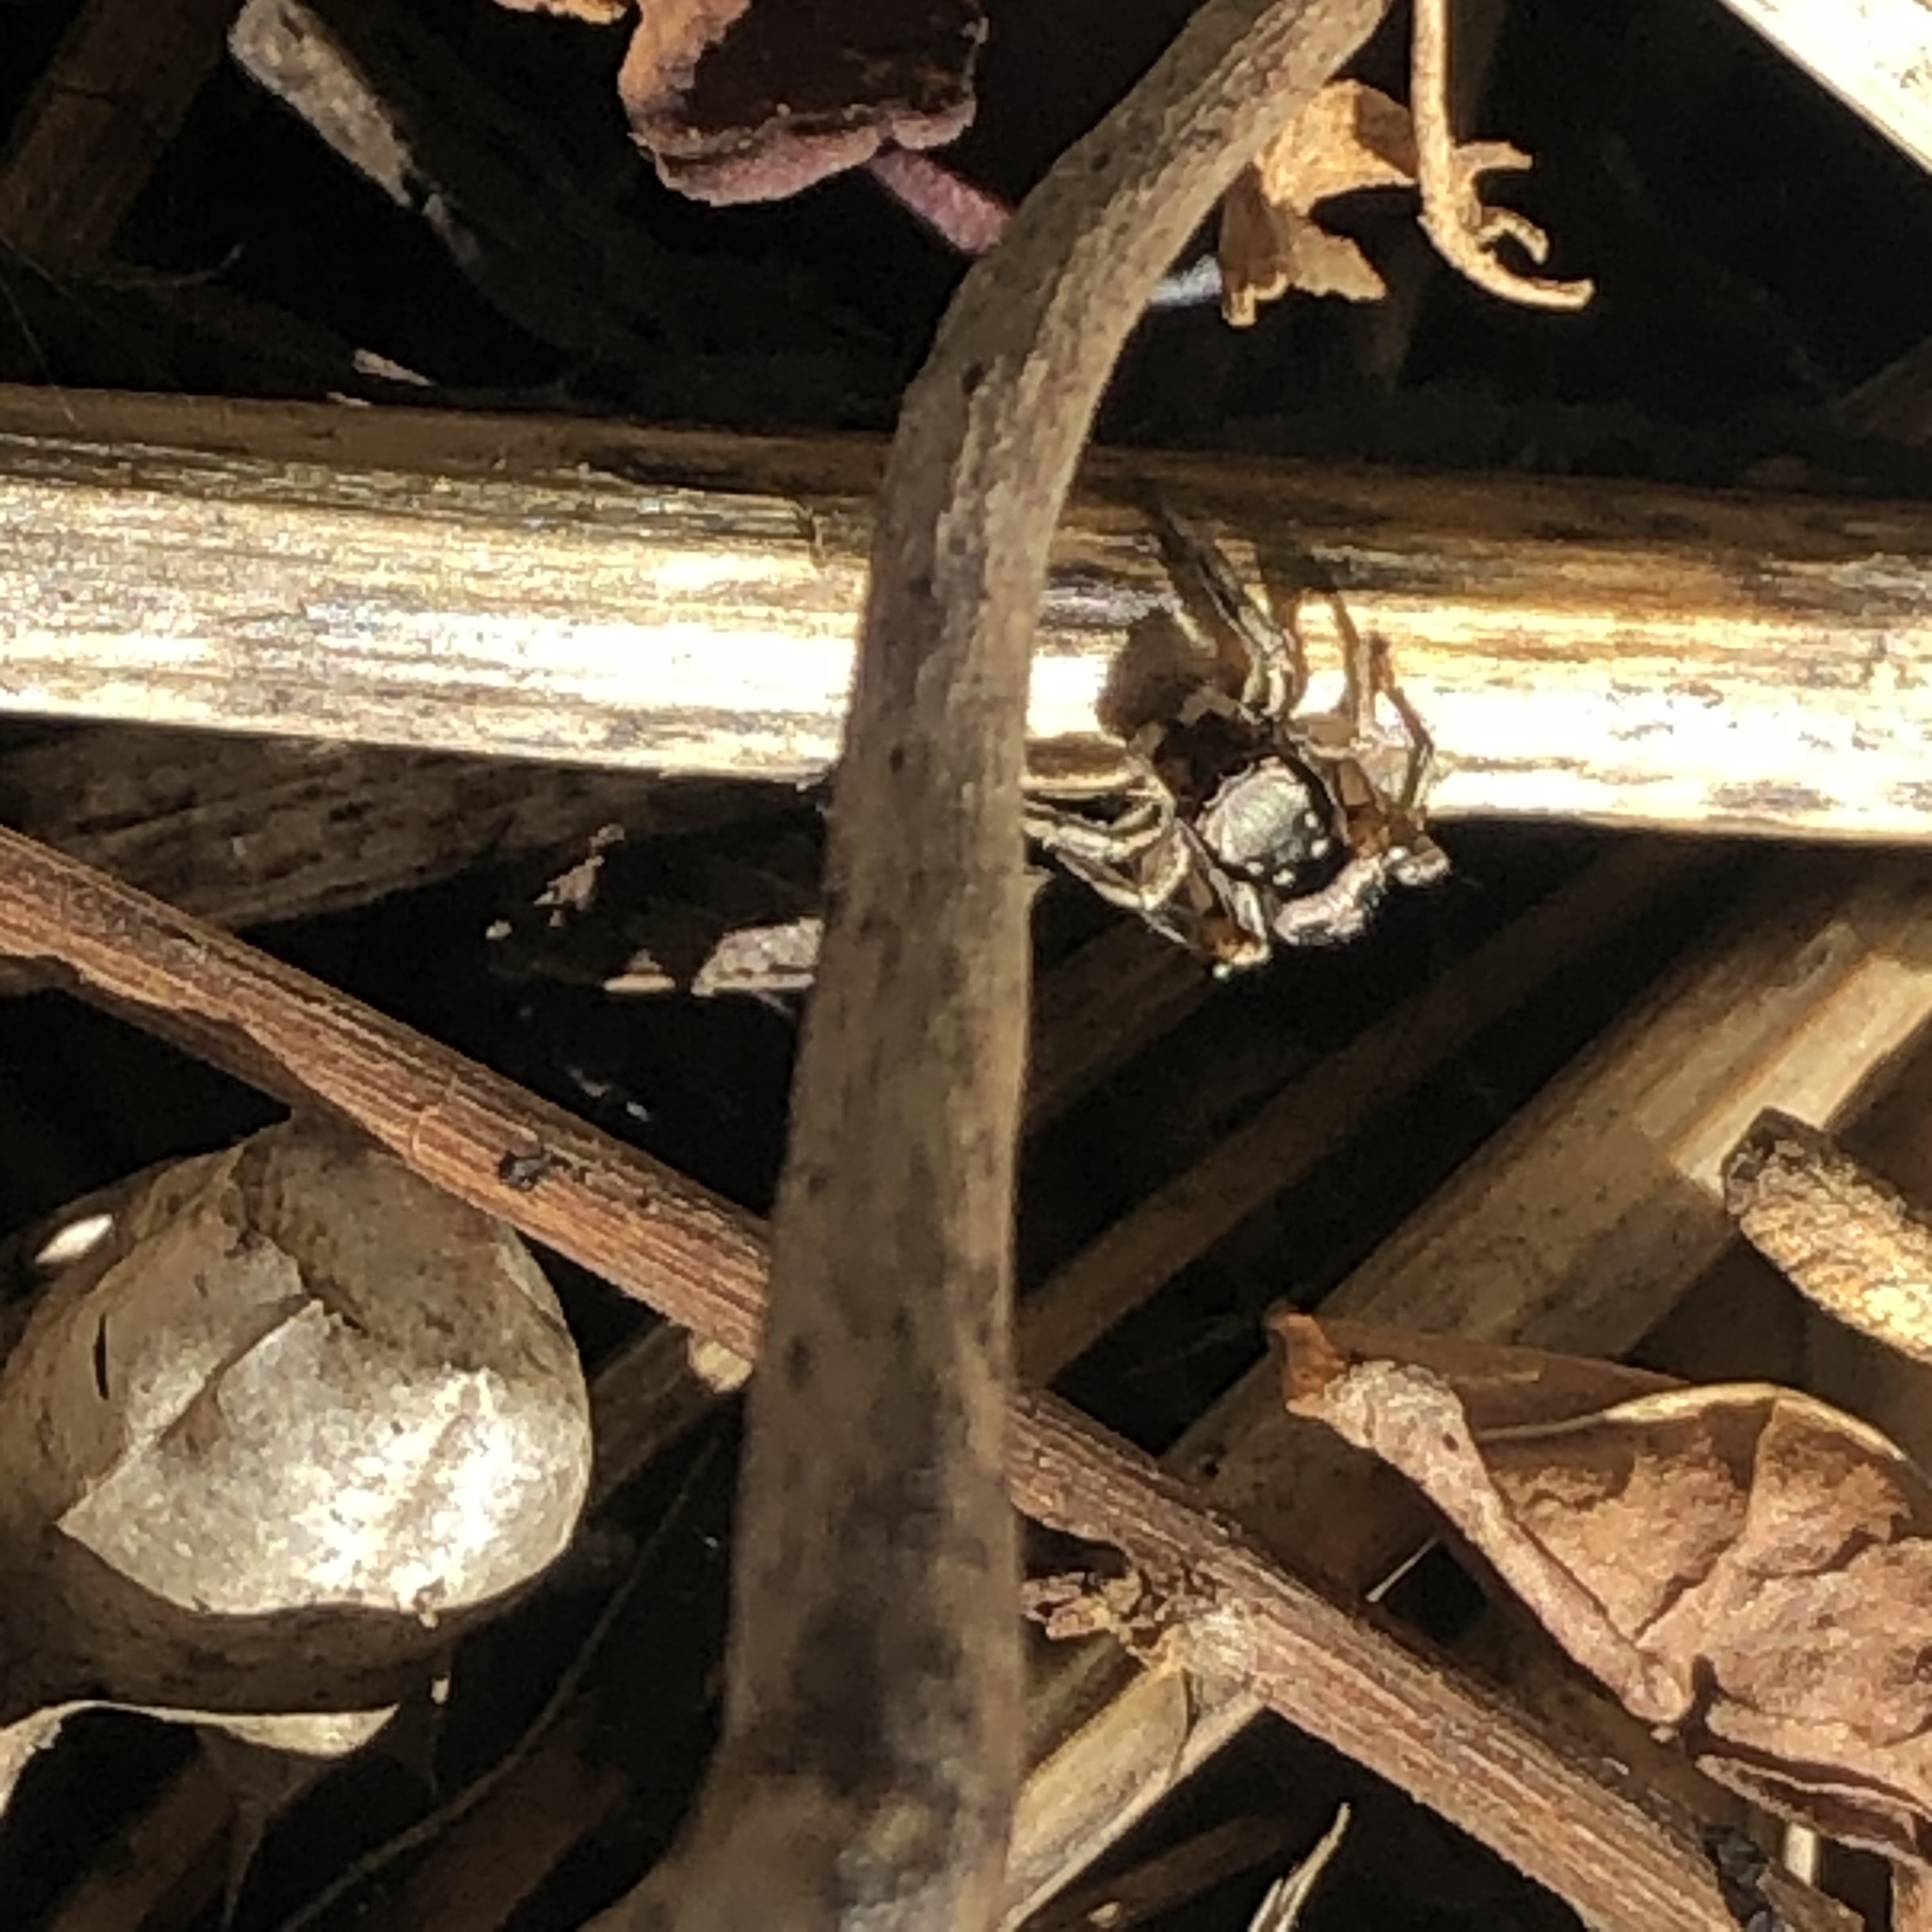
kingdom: Animalia
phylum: Arthropoda
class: Arachnida
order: Araneae
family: Salticidae
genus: Habronattus
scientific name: Habronattus pyrrithrix
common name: Jumping spider
